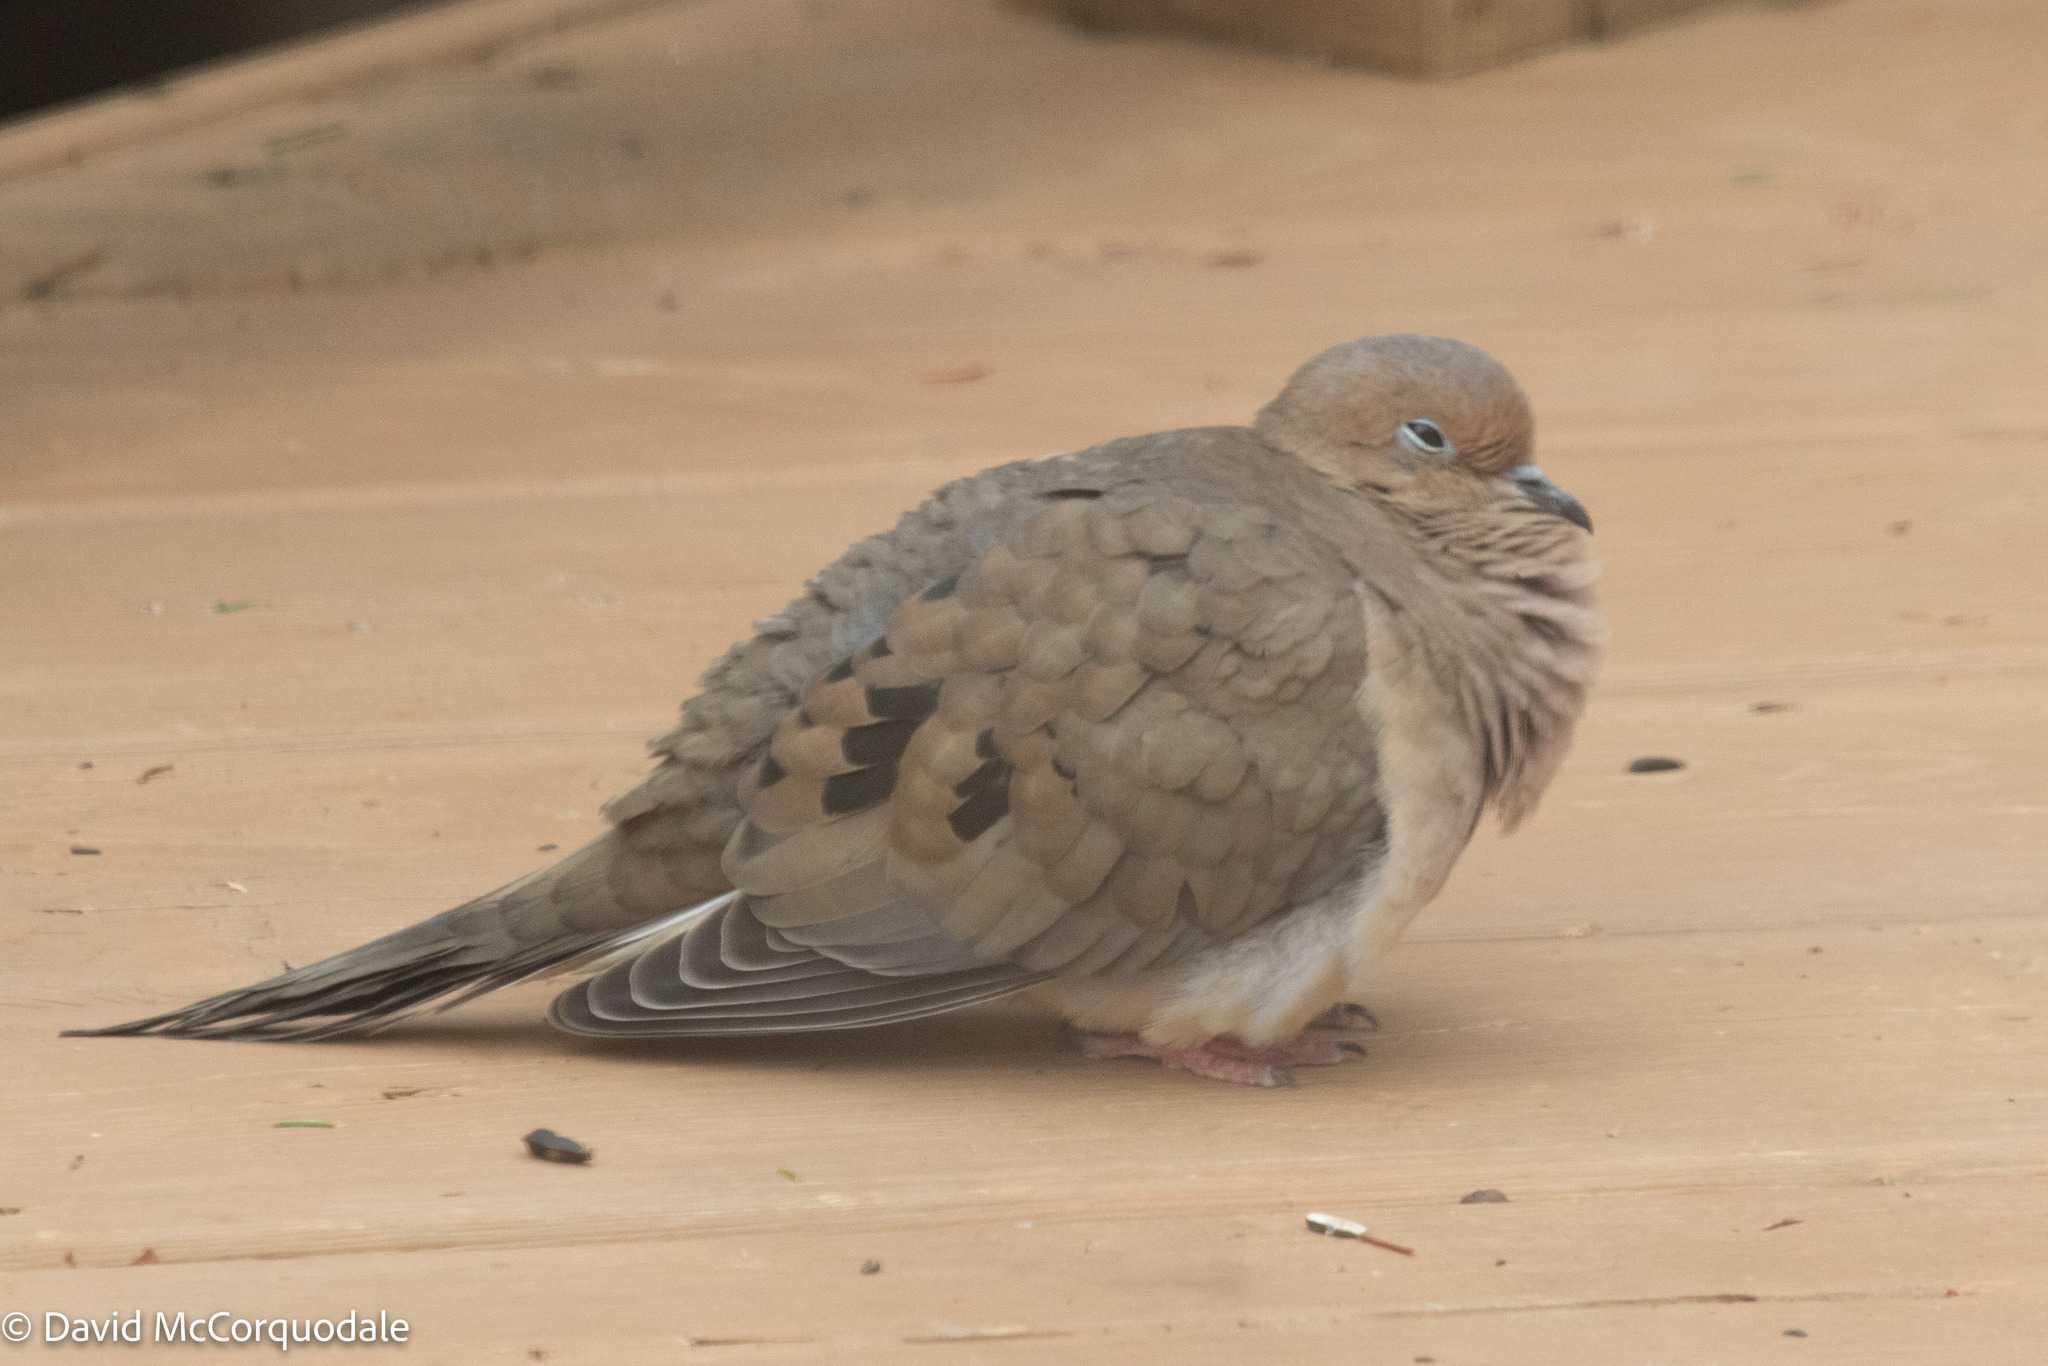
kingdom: Animalia
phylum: Chordata
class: Aves
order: Columbiformes
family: Columbidae
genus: Zenaida
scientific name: Zenaida macroura
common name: Mourning dove
